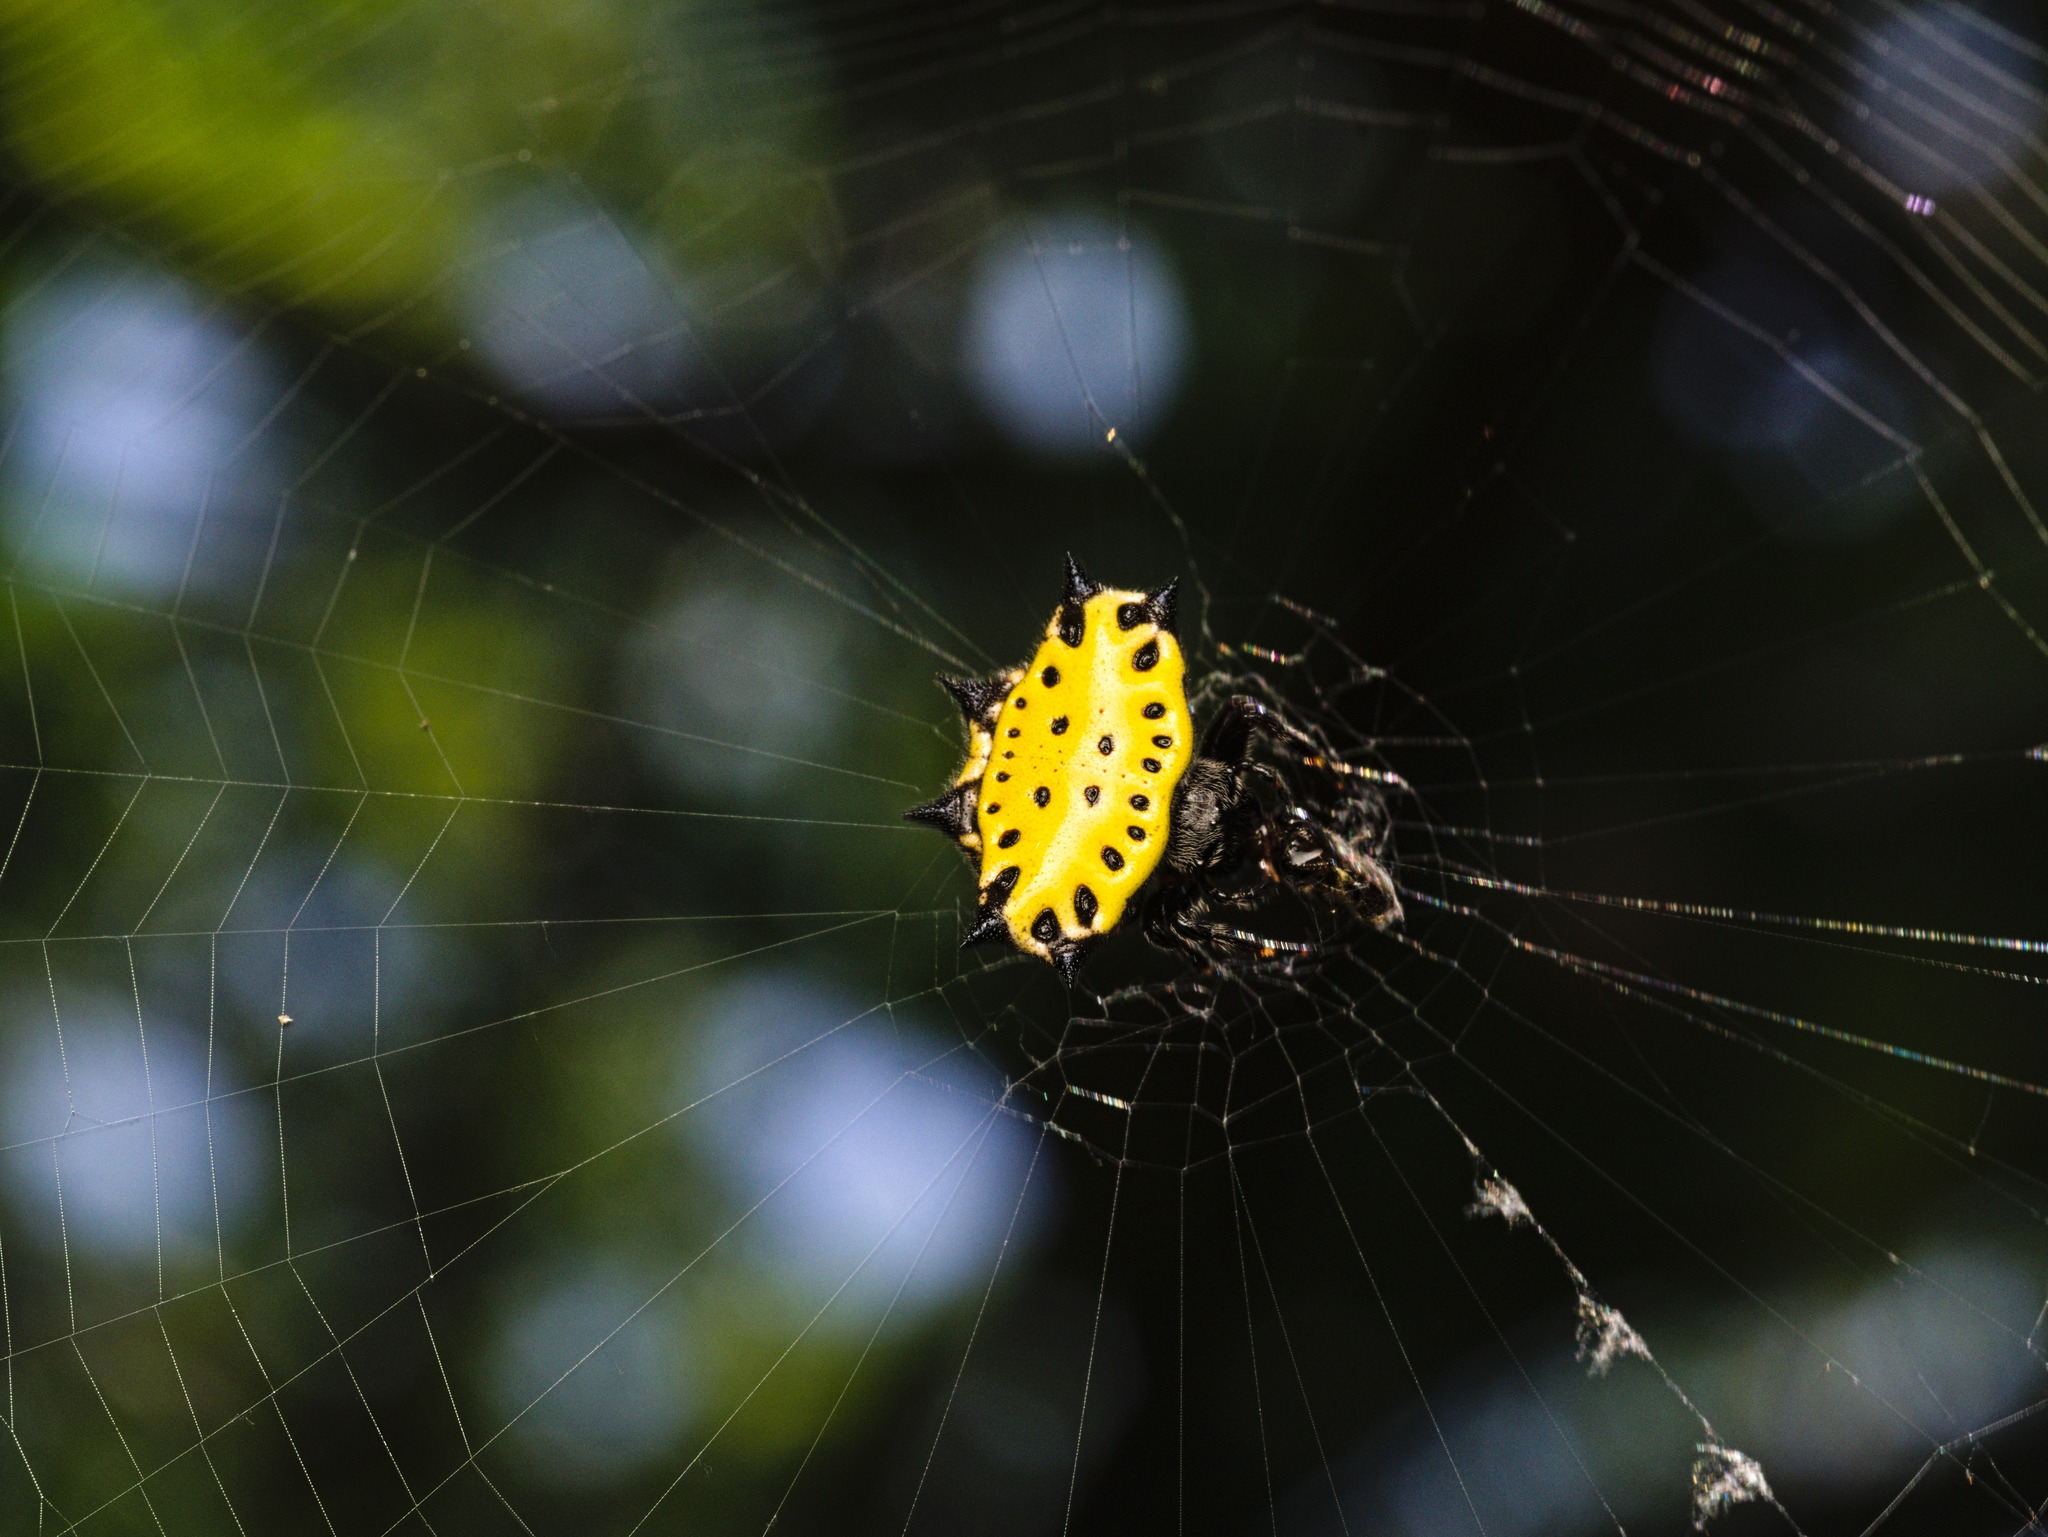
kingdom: Animalia
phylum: Arthropoda
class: Arachnida
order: Araneae
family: Araneidae
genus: Gasteracantha
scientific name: Gasteracantha cancriformis
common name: Orb weavers
